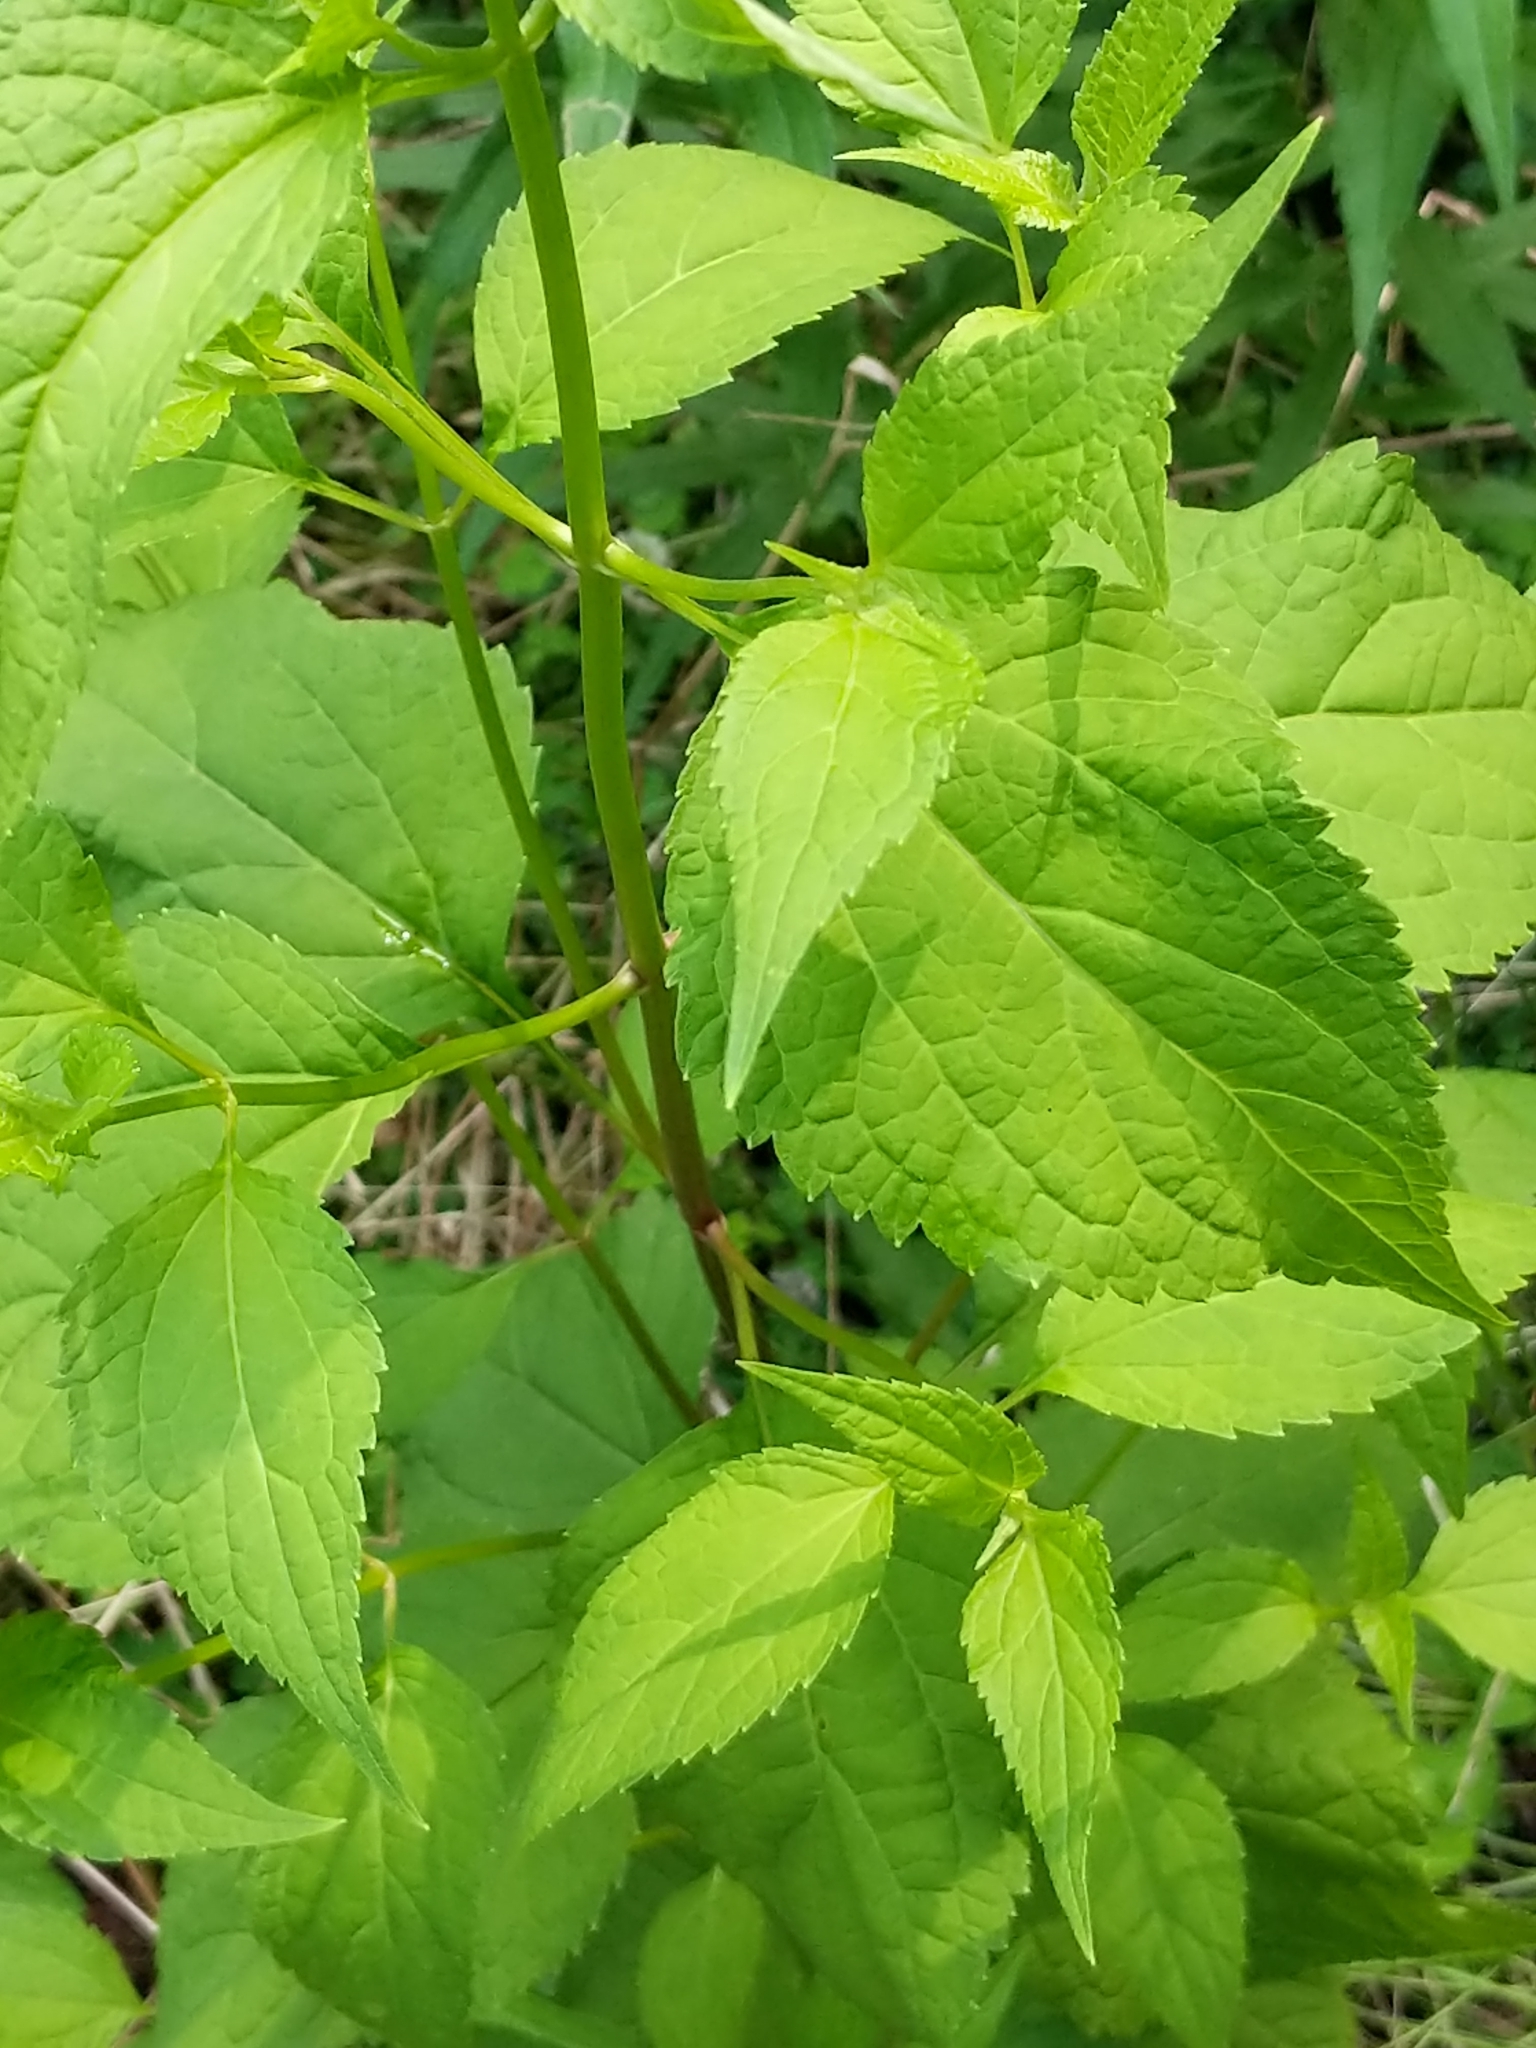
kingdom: Plantae
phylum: Tracheophyta
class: Magnoliopsida
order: Asterales
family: Asteraceae
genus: Ageratina
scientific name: Ageratina altissima
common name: White snakeroot
